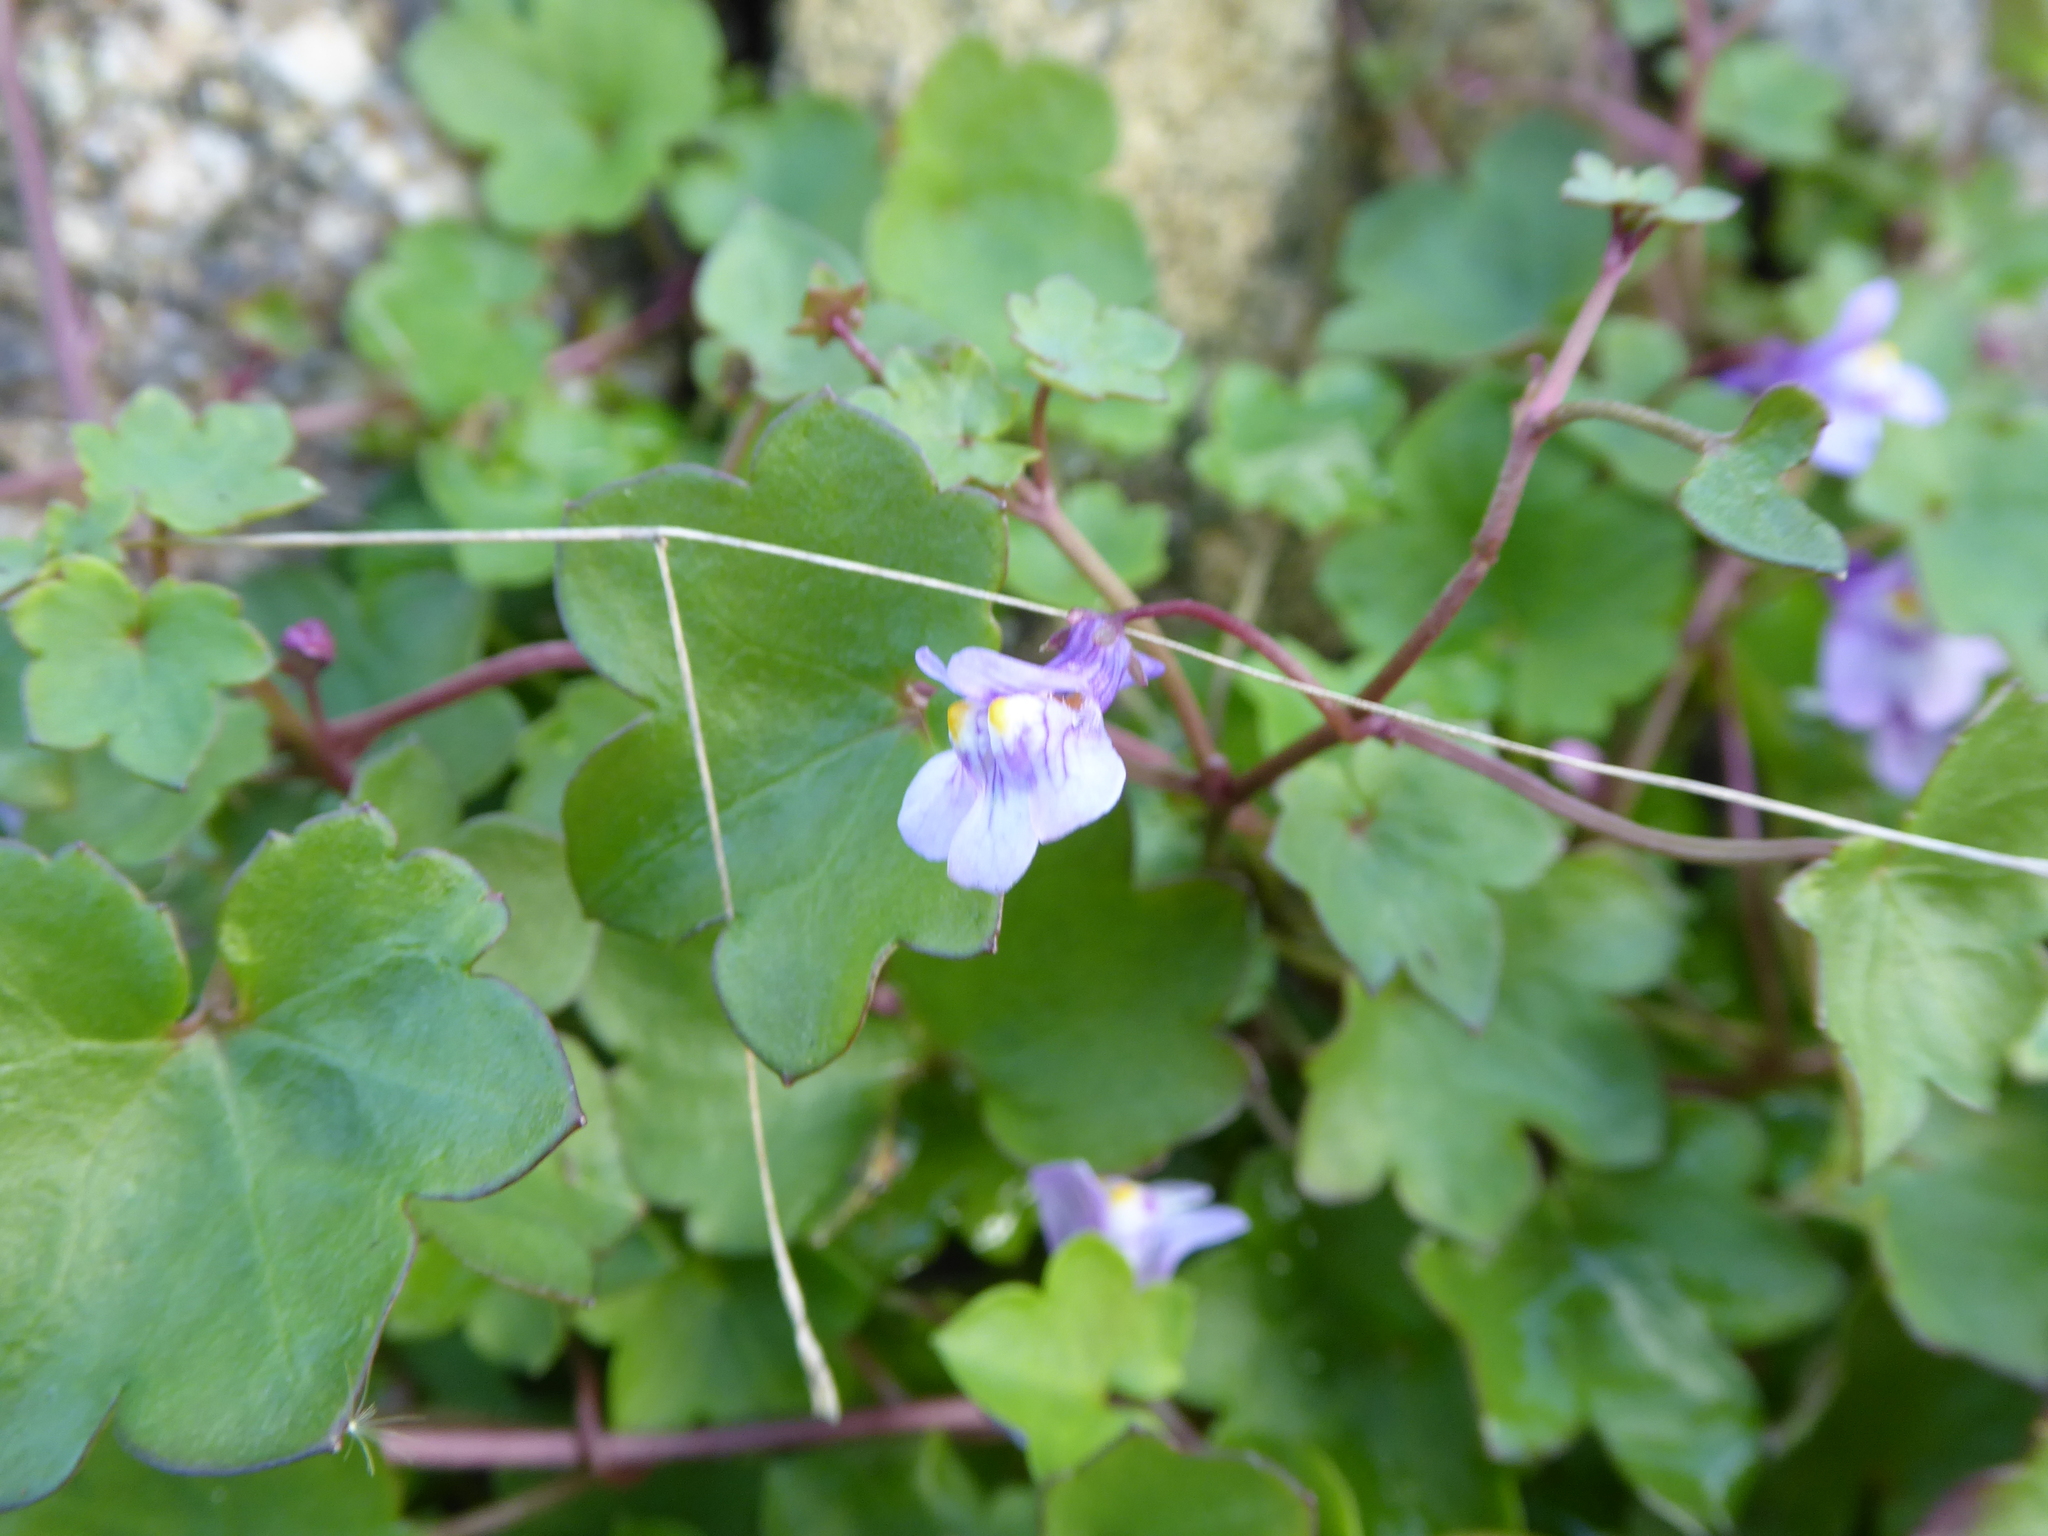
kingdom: Plantae
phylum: Tracheophyta
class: Magnoliopsida
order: Lamiales
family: Plantaginaceae
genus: Cymbalaria
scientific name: Cymbalaria muralis
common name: Ivy-leaved toadflax
